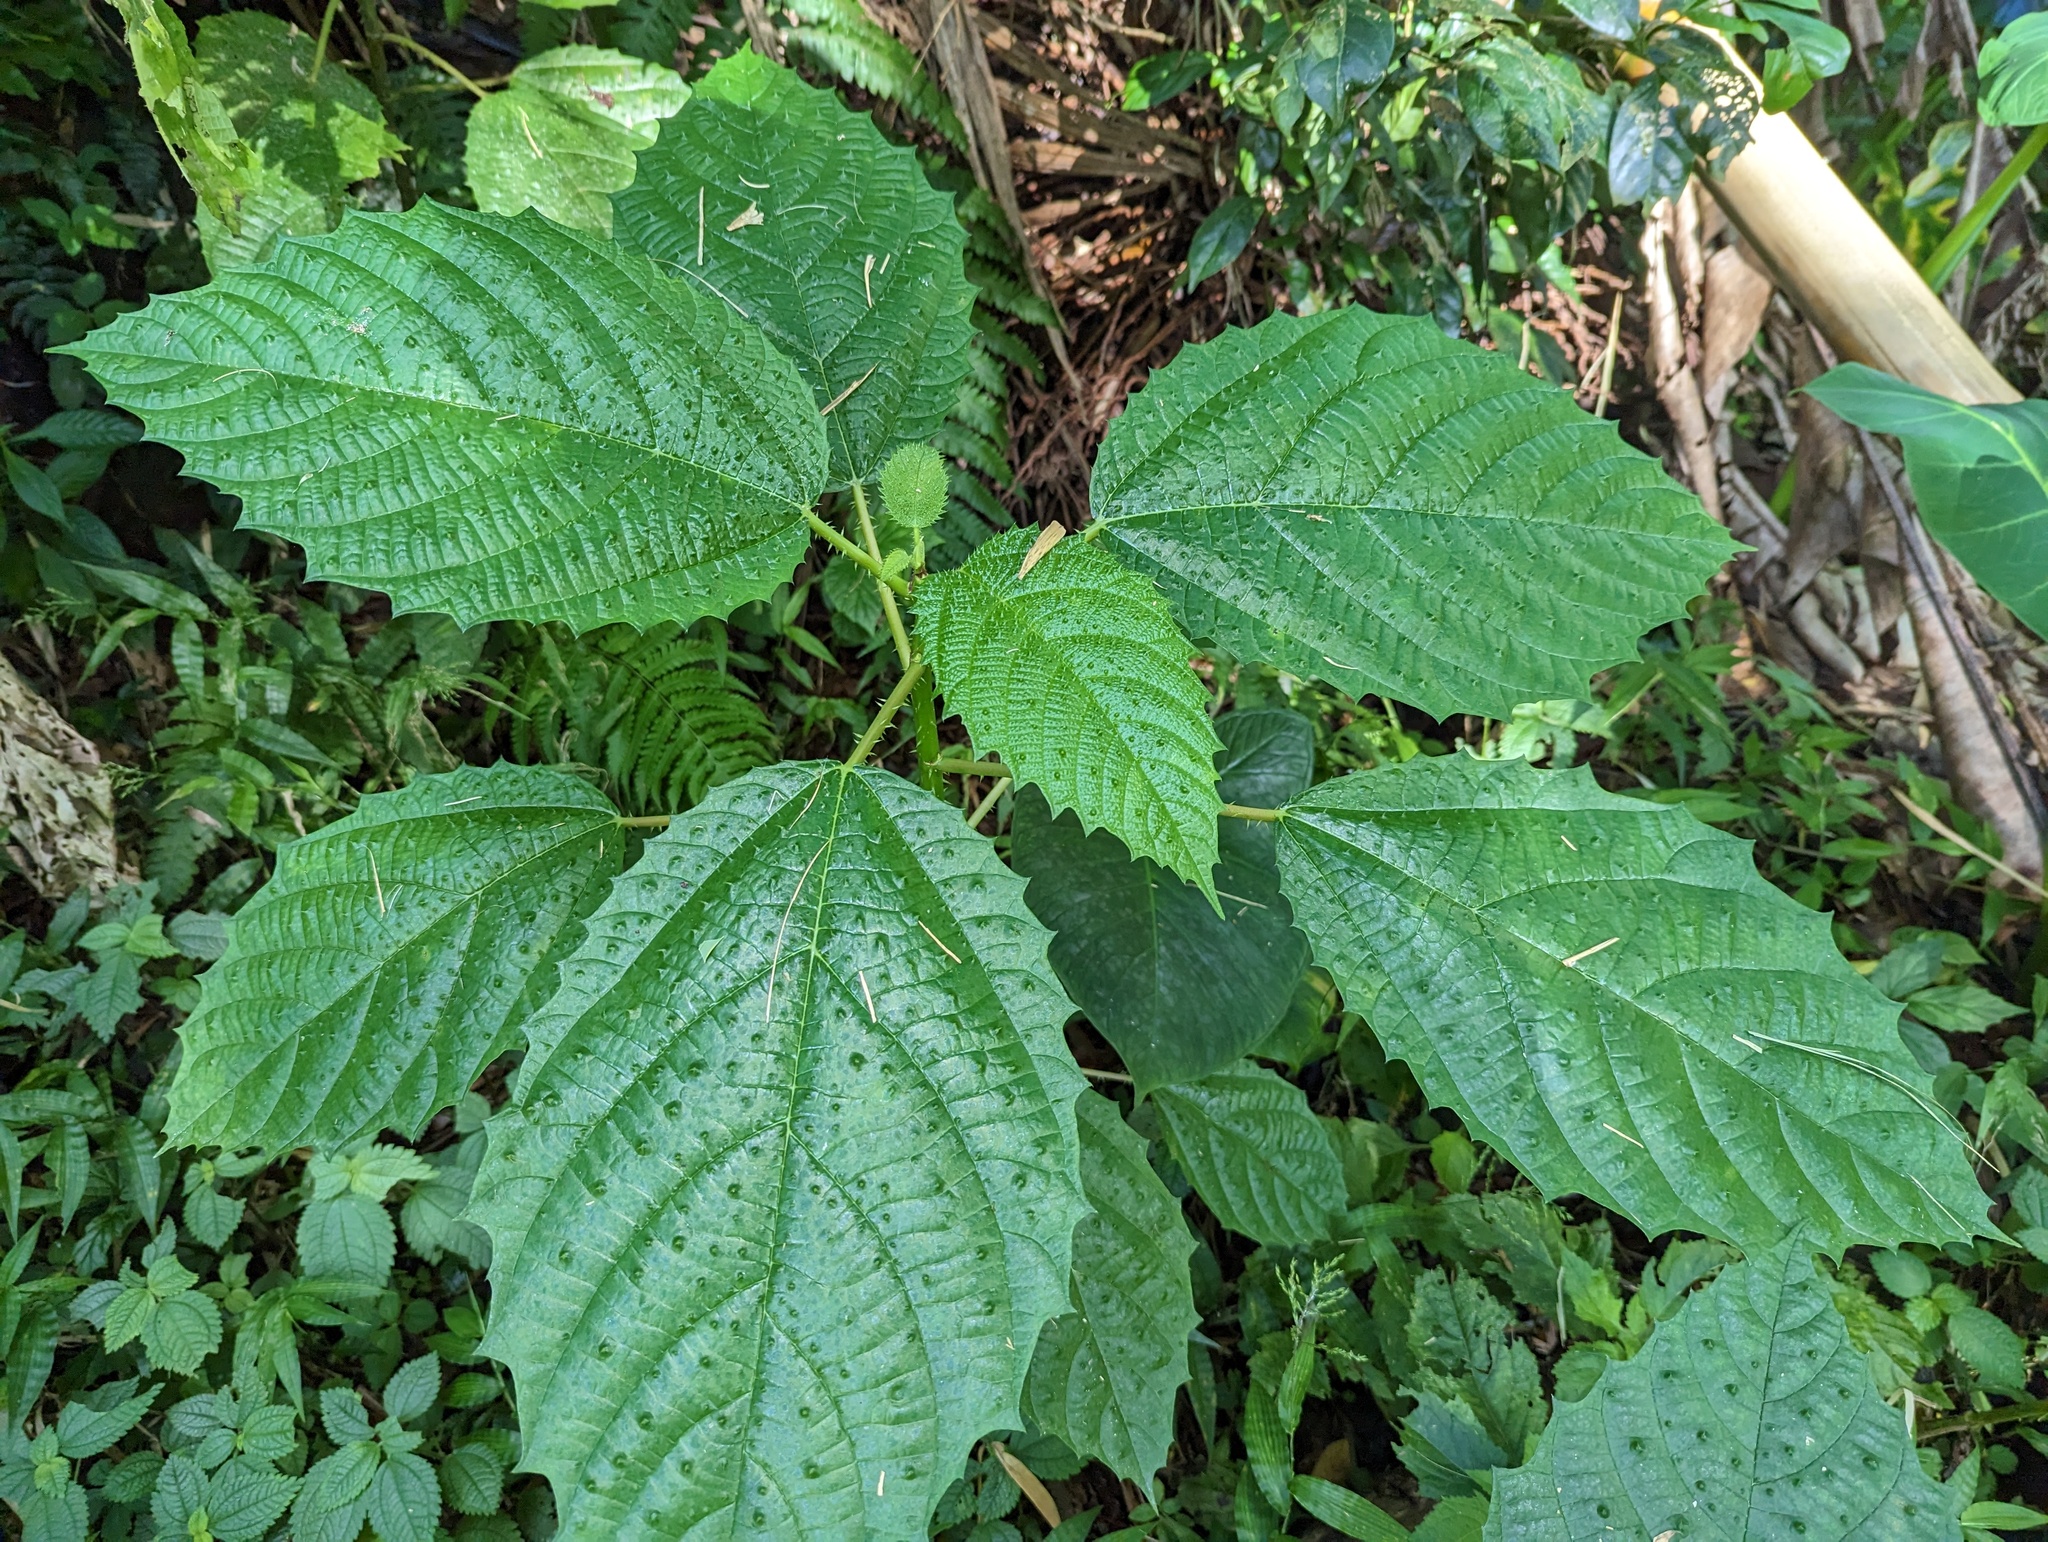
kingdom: Plantae
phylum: Tracheophyta
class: Magnoliopsida
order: Rosales
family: Urticaceae
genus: Urera
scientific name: Urera baccifera
